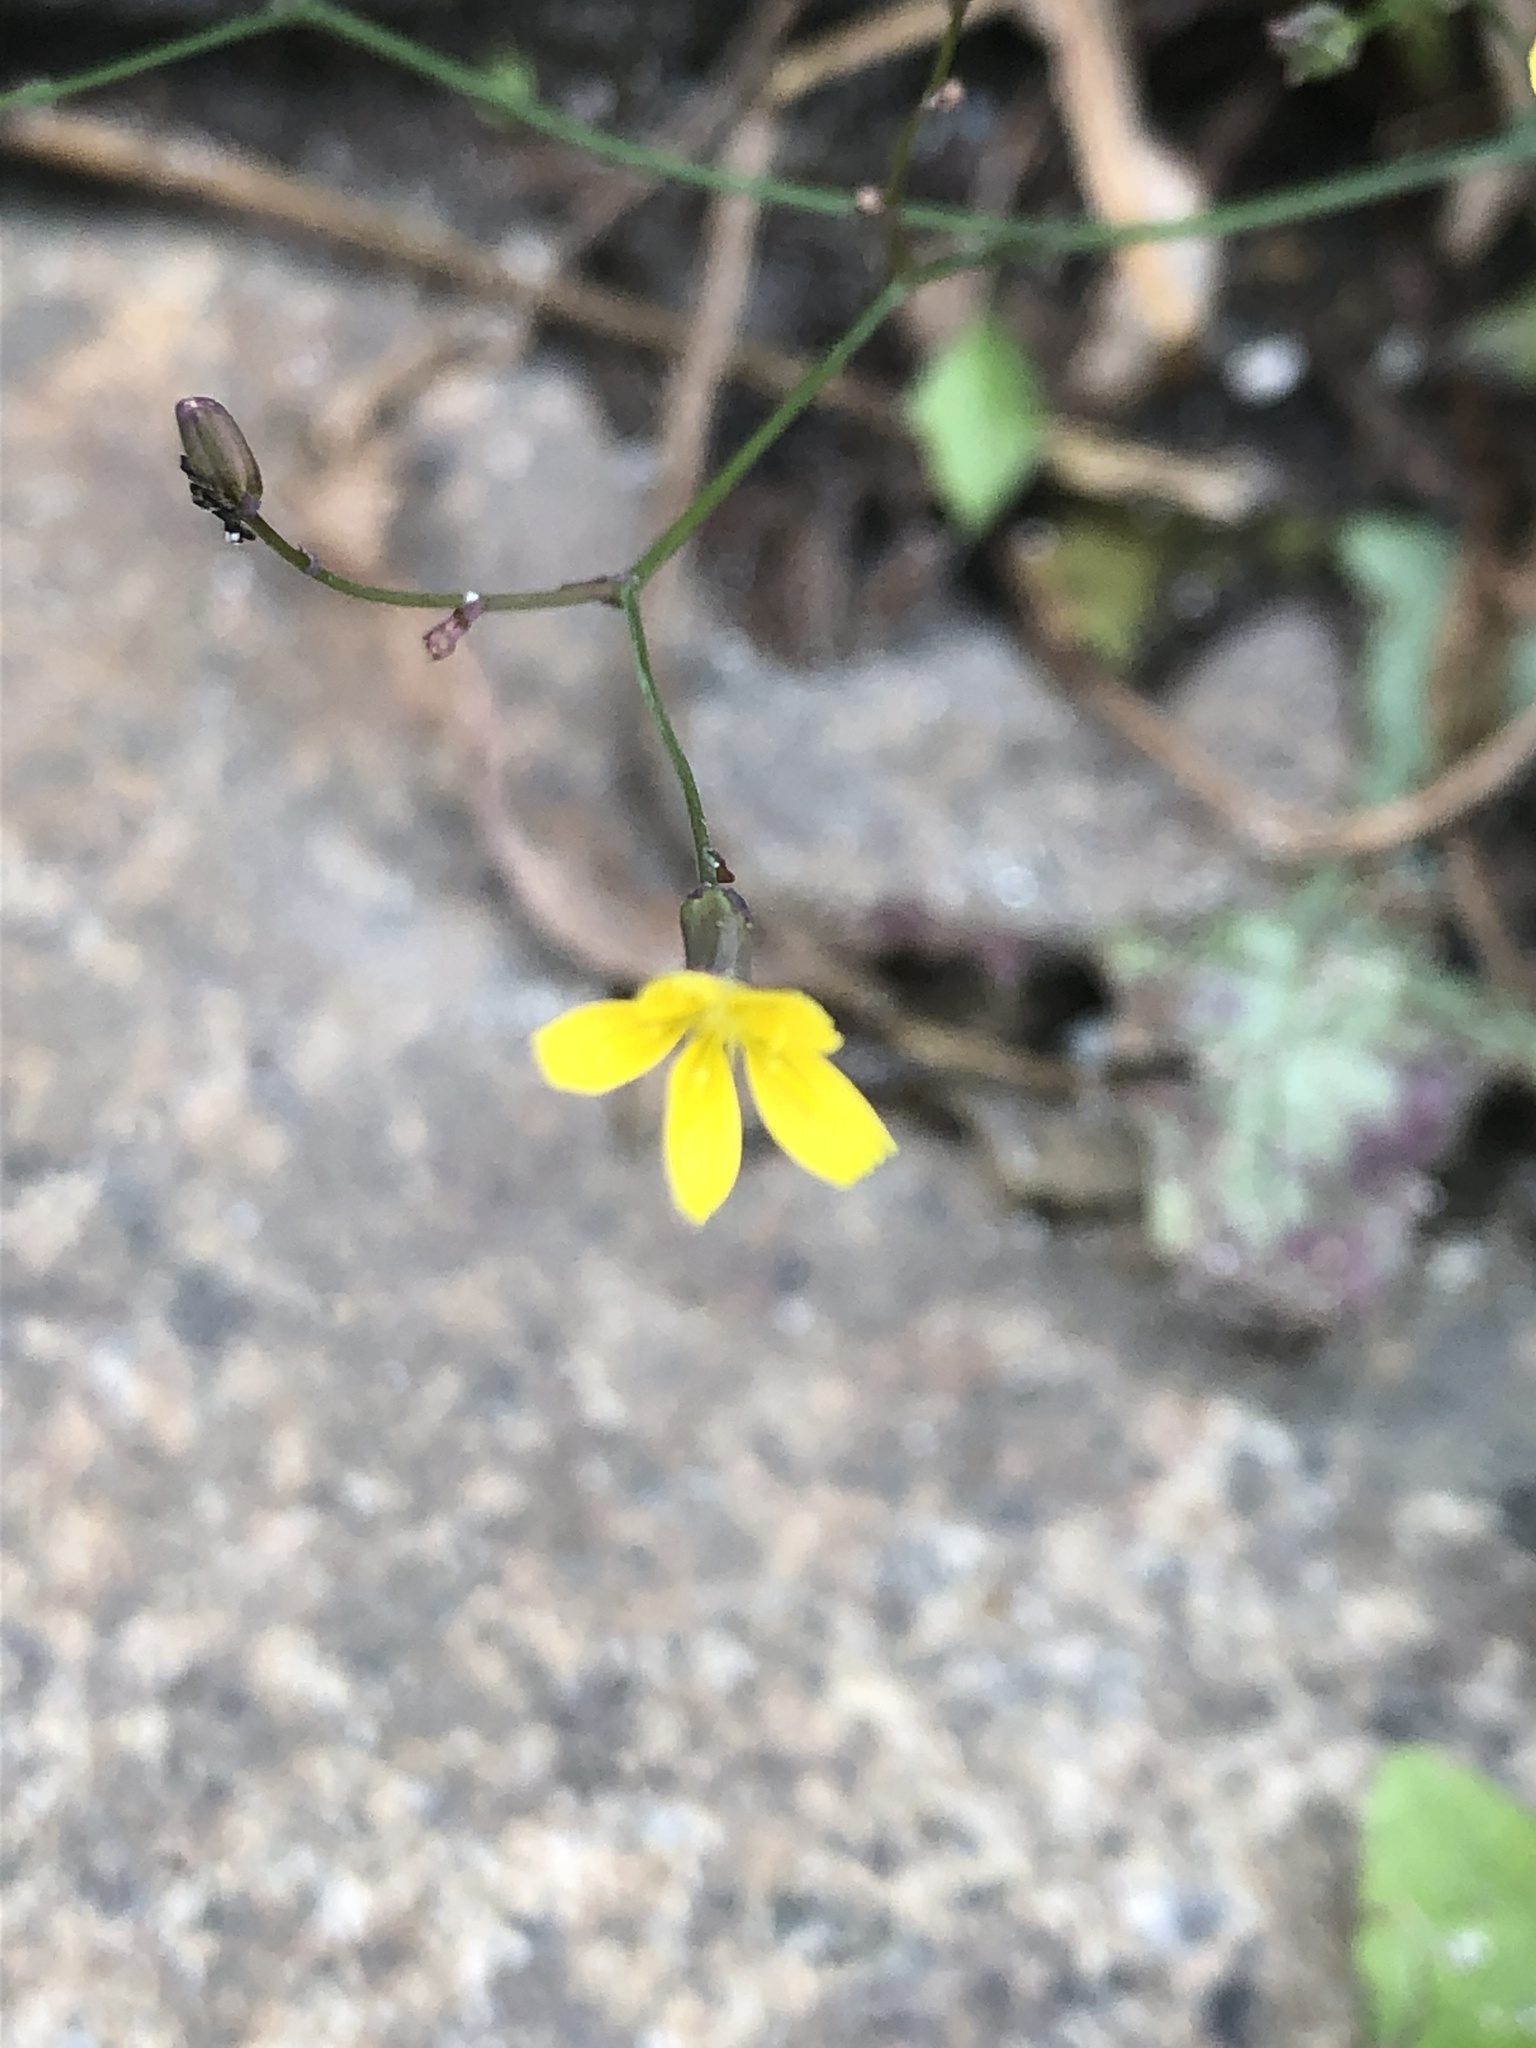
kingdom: Plantae
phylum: Tracheophyta
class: Magnoliopsida
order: Asterales
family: Asteraceae
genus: Mycelis
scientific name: Mycelis muralis
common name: Wall lettuce
